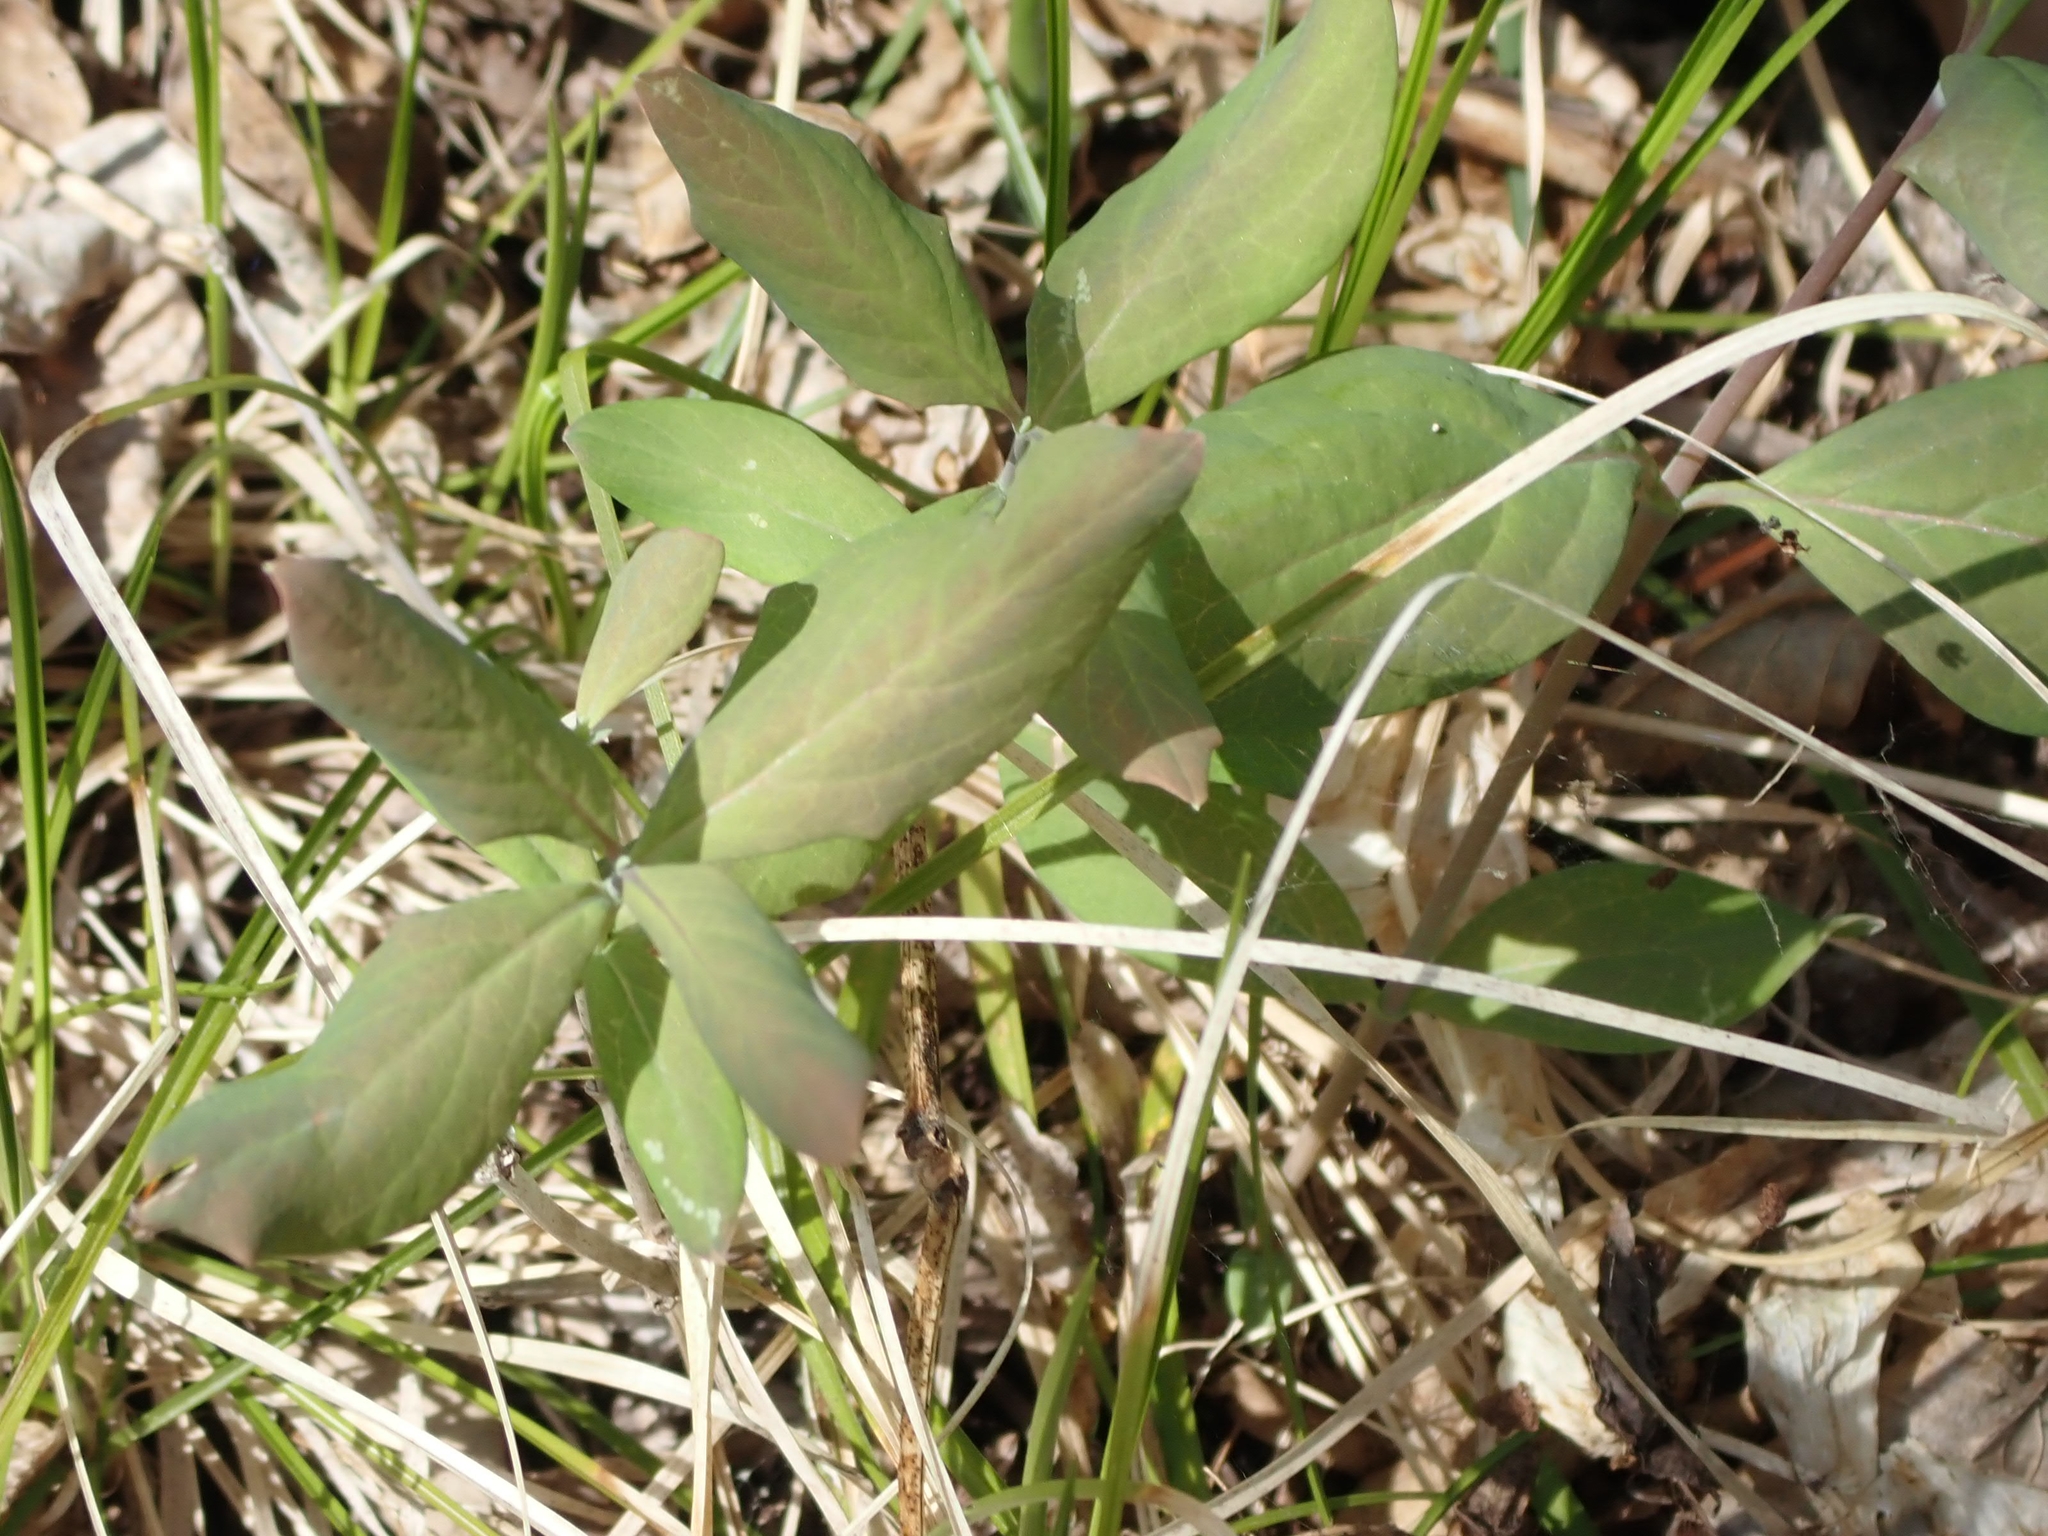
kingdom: Plantae
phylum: Tracheophyta
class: Magnoliopsida
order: Dipsacales
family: Caprifoliaceae
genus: Lonicera
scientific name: Lonicera dioica
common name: Limber honeysuckle
